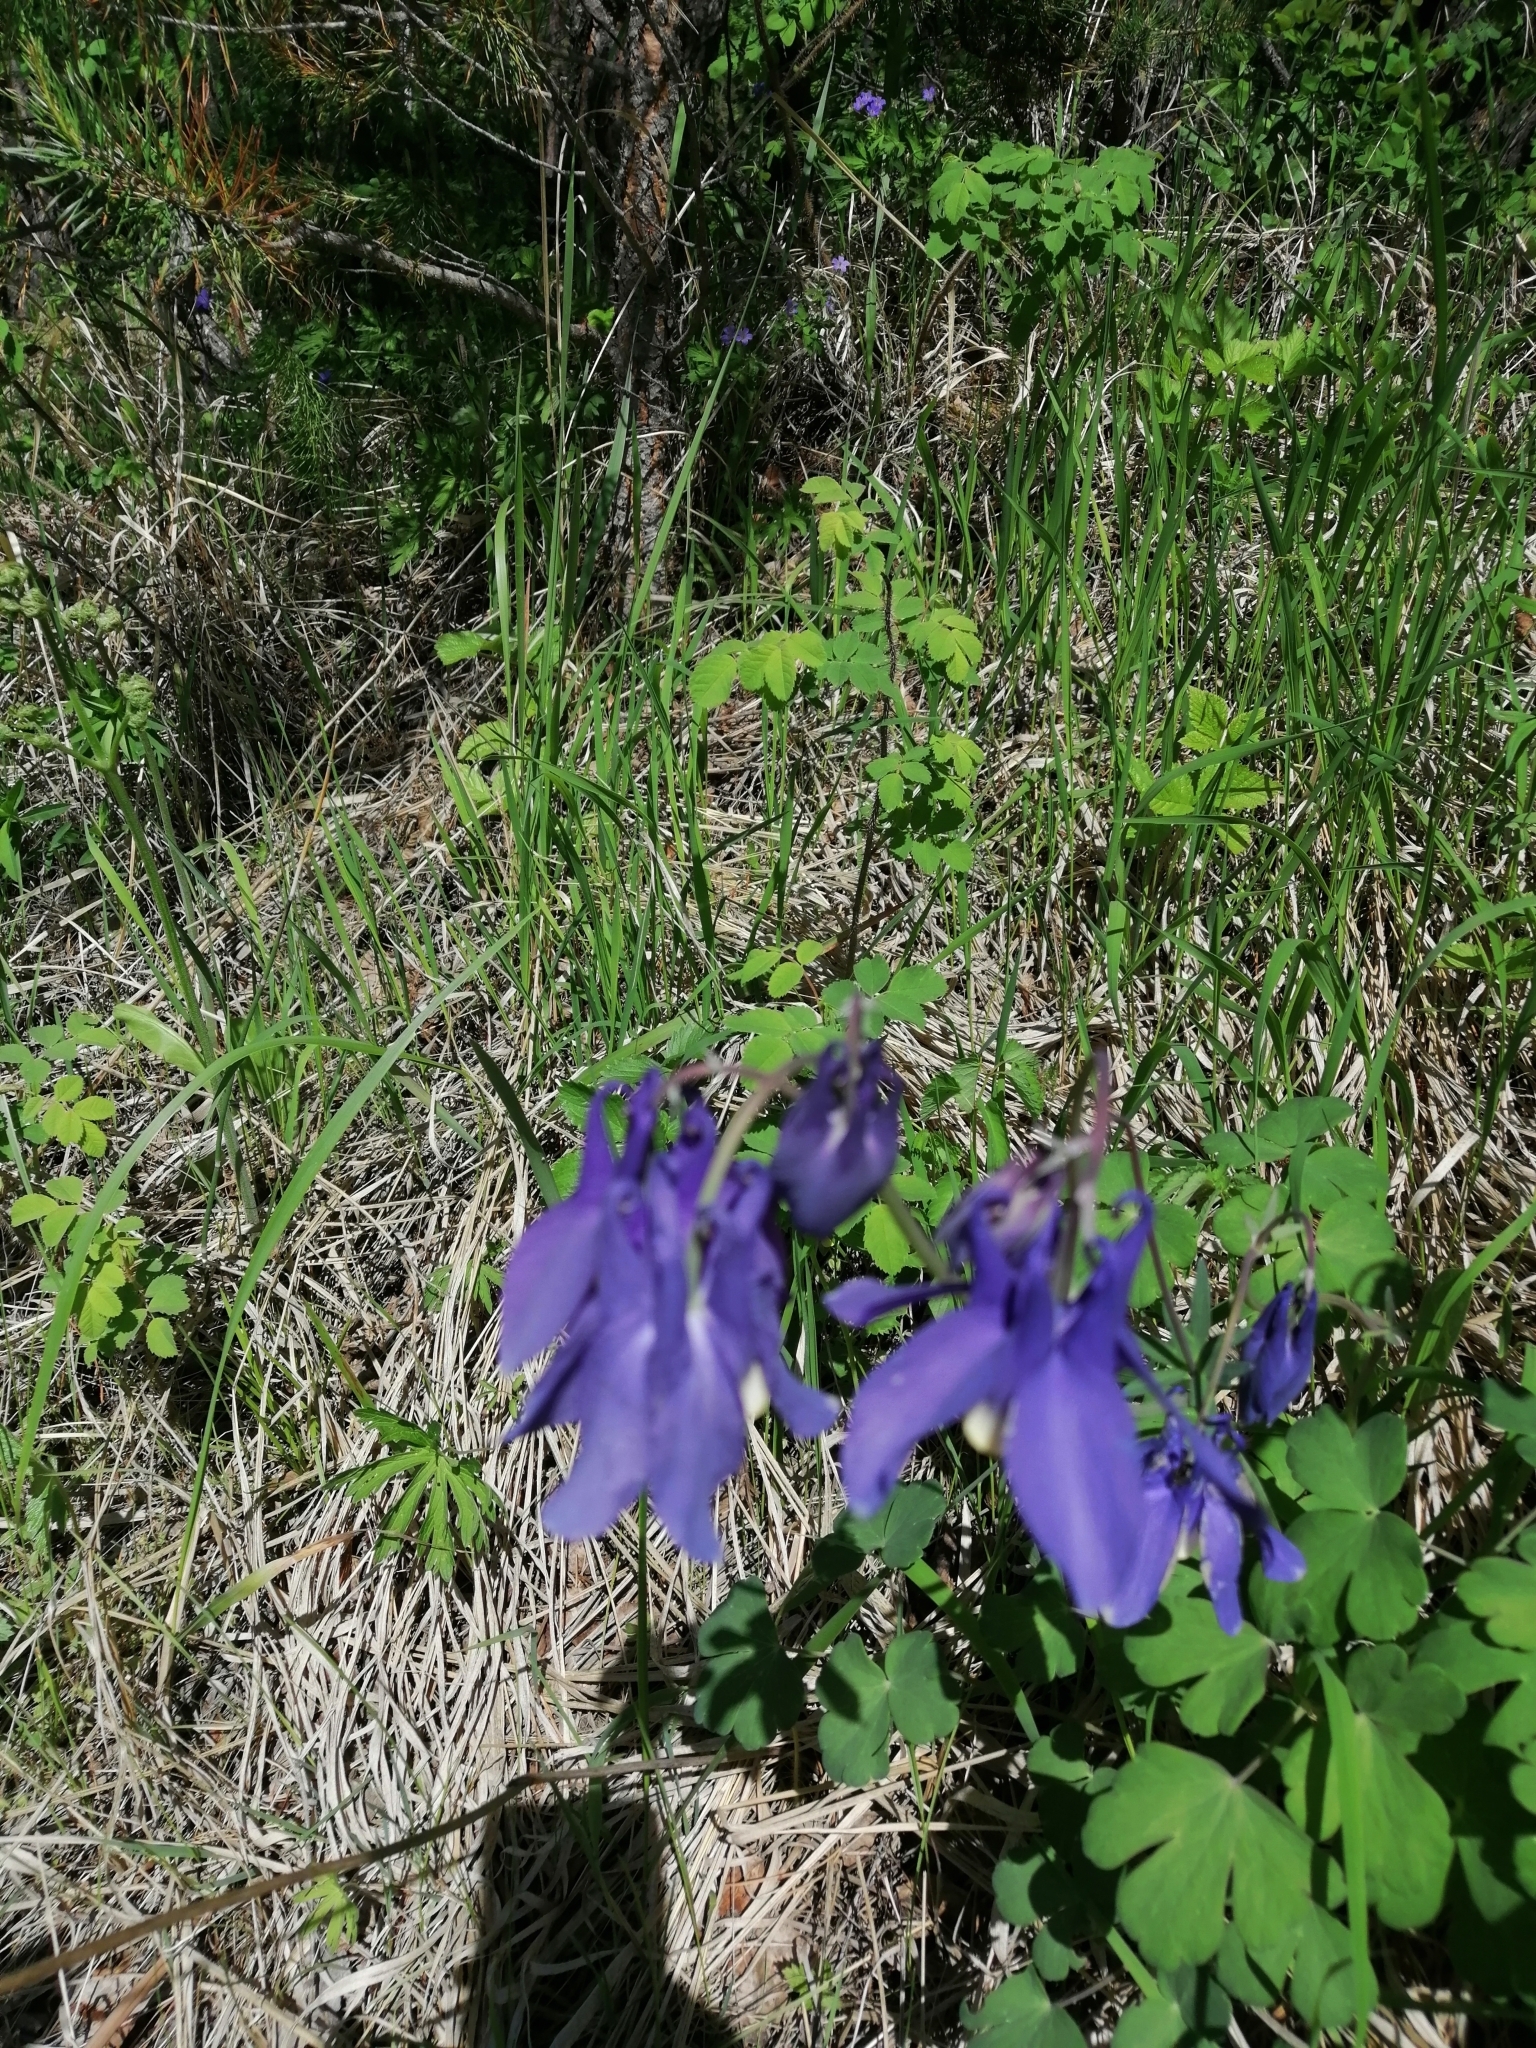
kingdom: Plantae
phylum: Tracheophyta
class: Magnoliopsida
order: Ranunculales
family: Ranunculaceae
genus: Aquilegia
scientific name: Aquilegia sibirica
